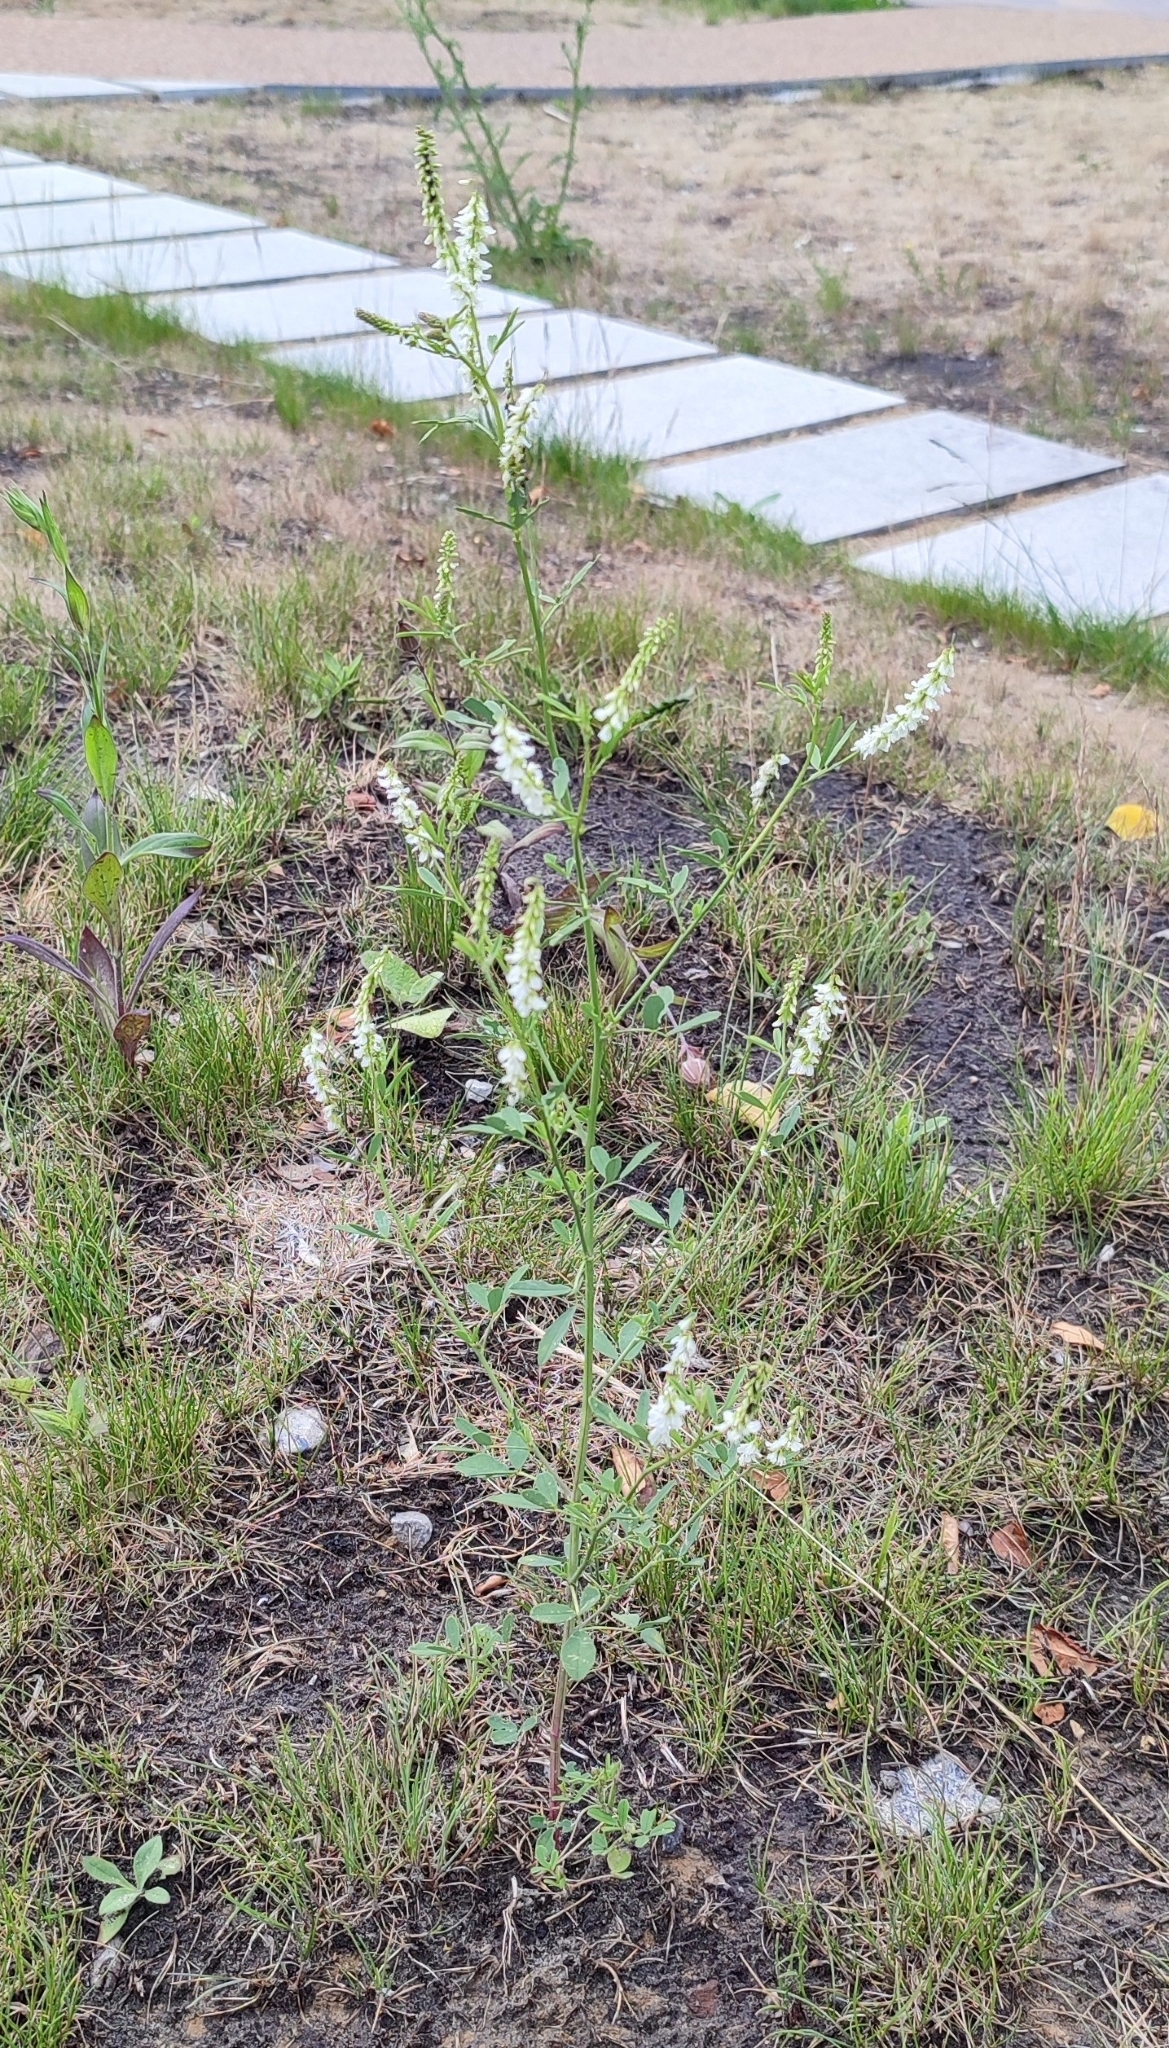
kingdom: Plantae
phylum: Tracheophyta
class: Magnoliopsida
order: Fabales
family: Fabaceae
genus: Melilotus
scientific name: Melilotus albus
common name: White melilot
